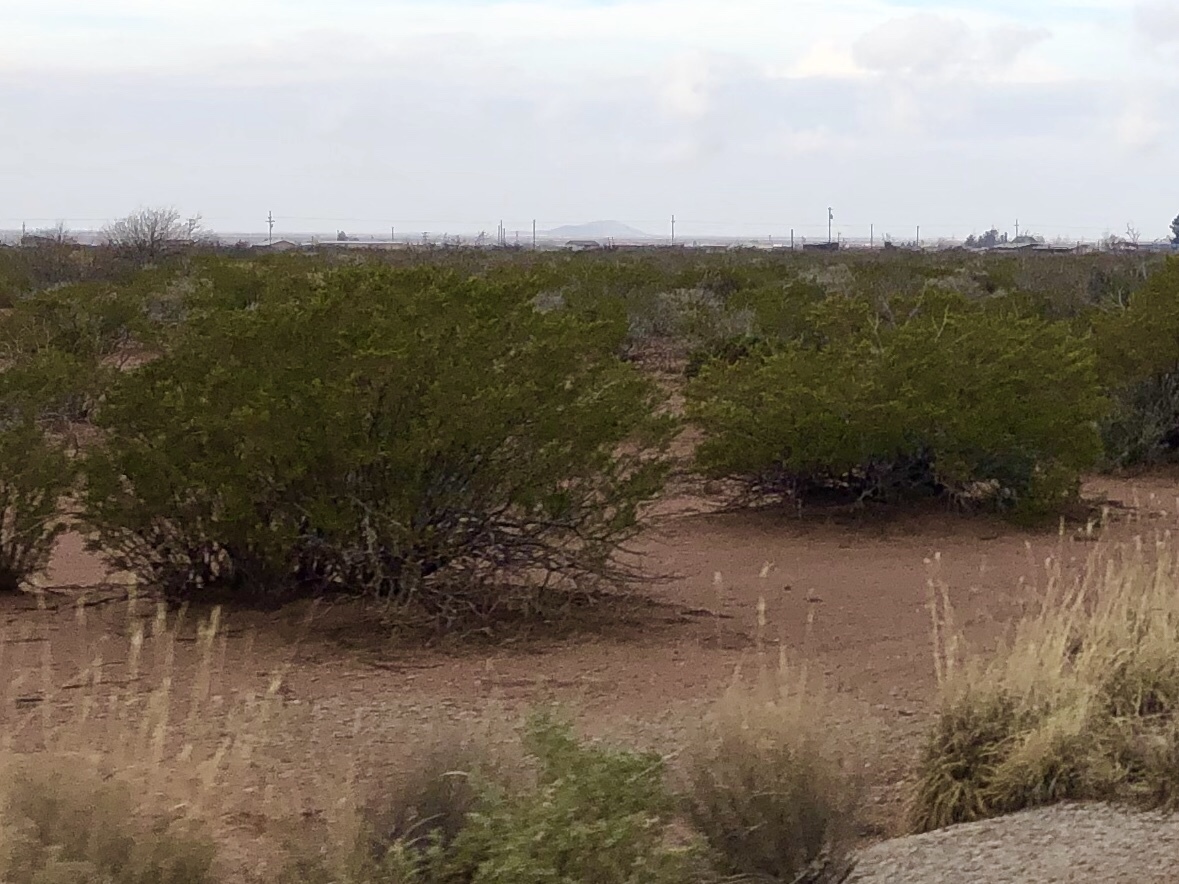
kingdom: Plantae
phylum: Tracheophyta
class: Magnoliopsida
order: Zygophyllales
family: Zygophyllaceae
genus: Larrea
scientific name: Larrea tridentata
